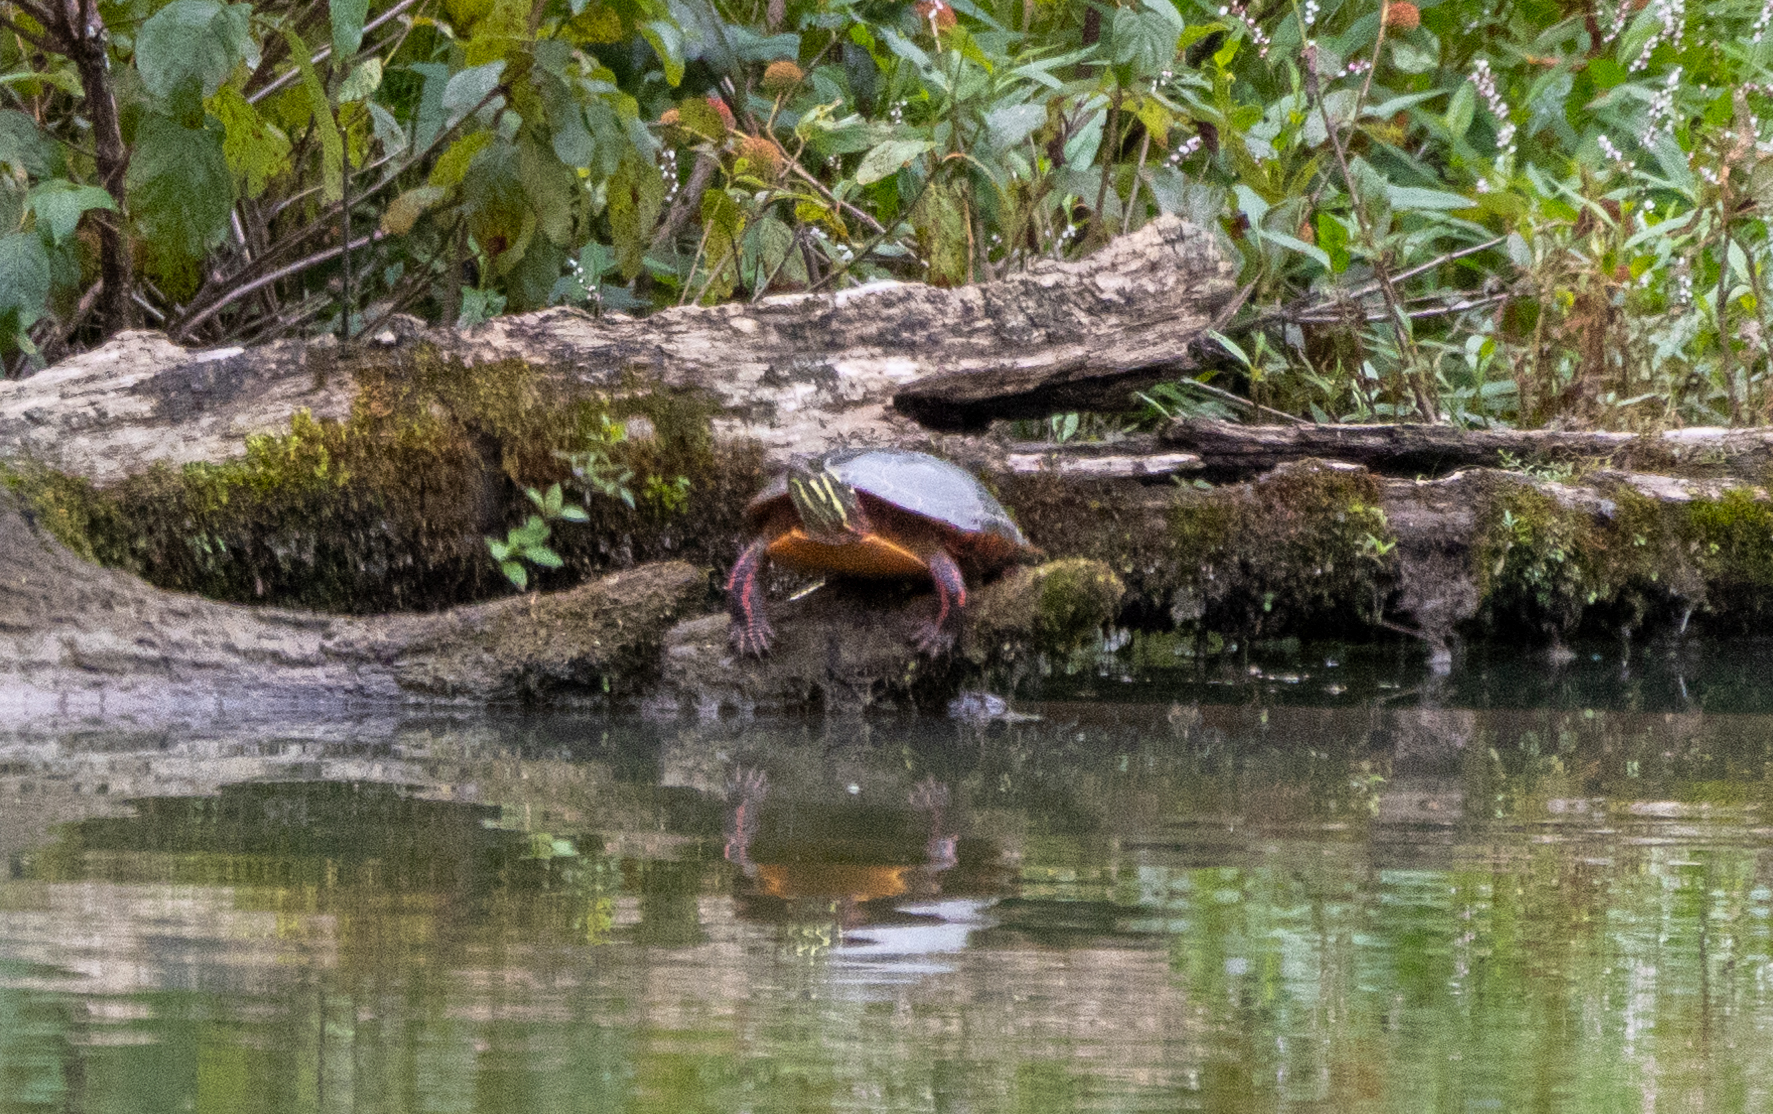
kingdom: Animalia
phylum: Chordata
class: Testudines
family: Emydidae
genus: Chrysemys
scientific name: Chrysemys picta
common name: Painted turtle
